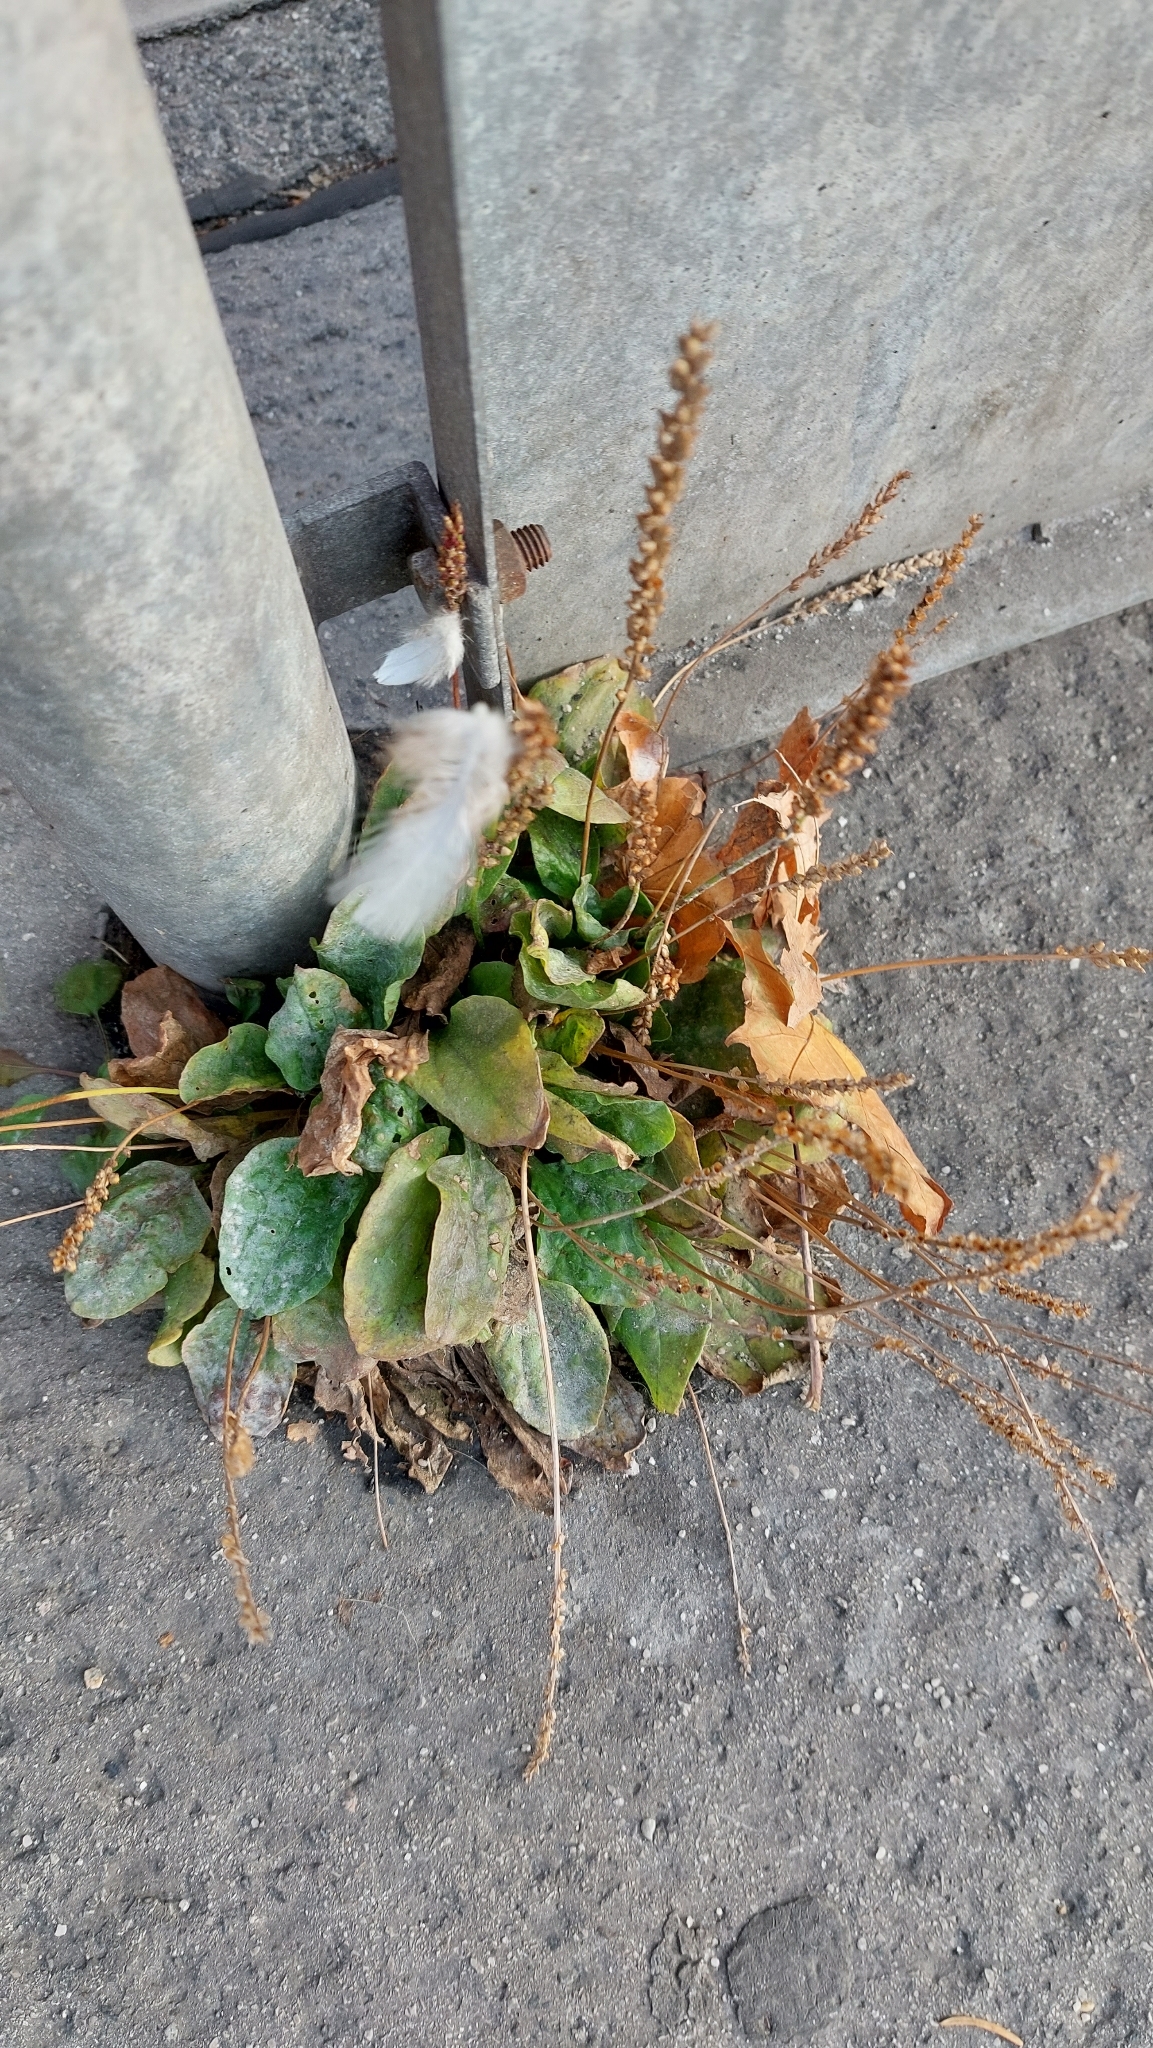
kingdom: Plantae
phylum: Tracheophyta
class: Magnoliopsida
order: Lamiales
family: Plantaginaceae
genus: Plantago
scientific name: Plantago major
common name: Common plantain
